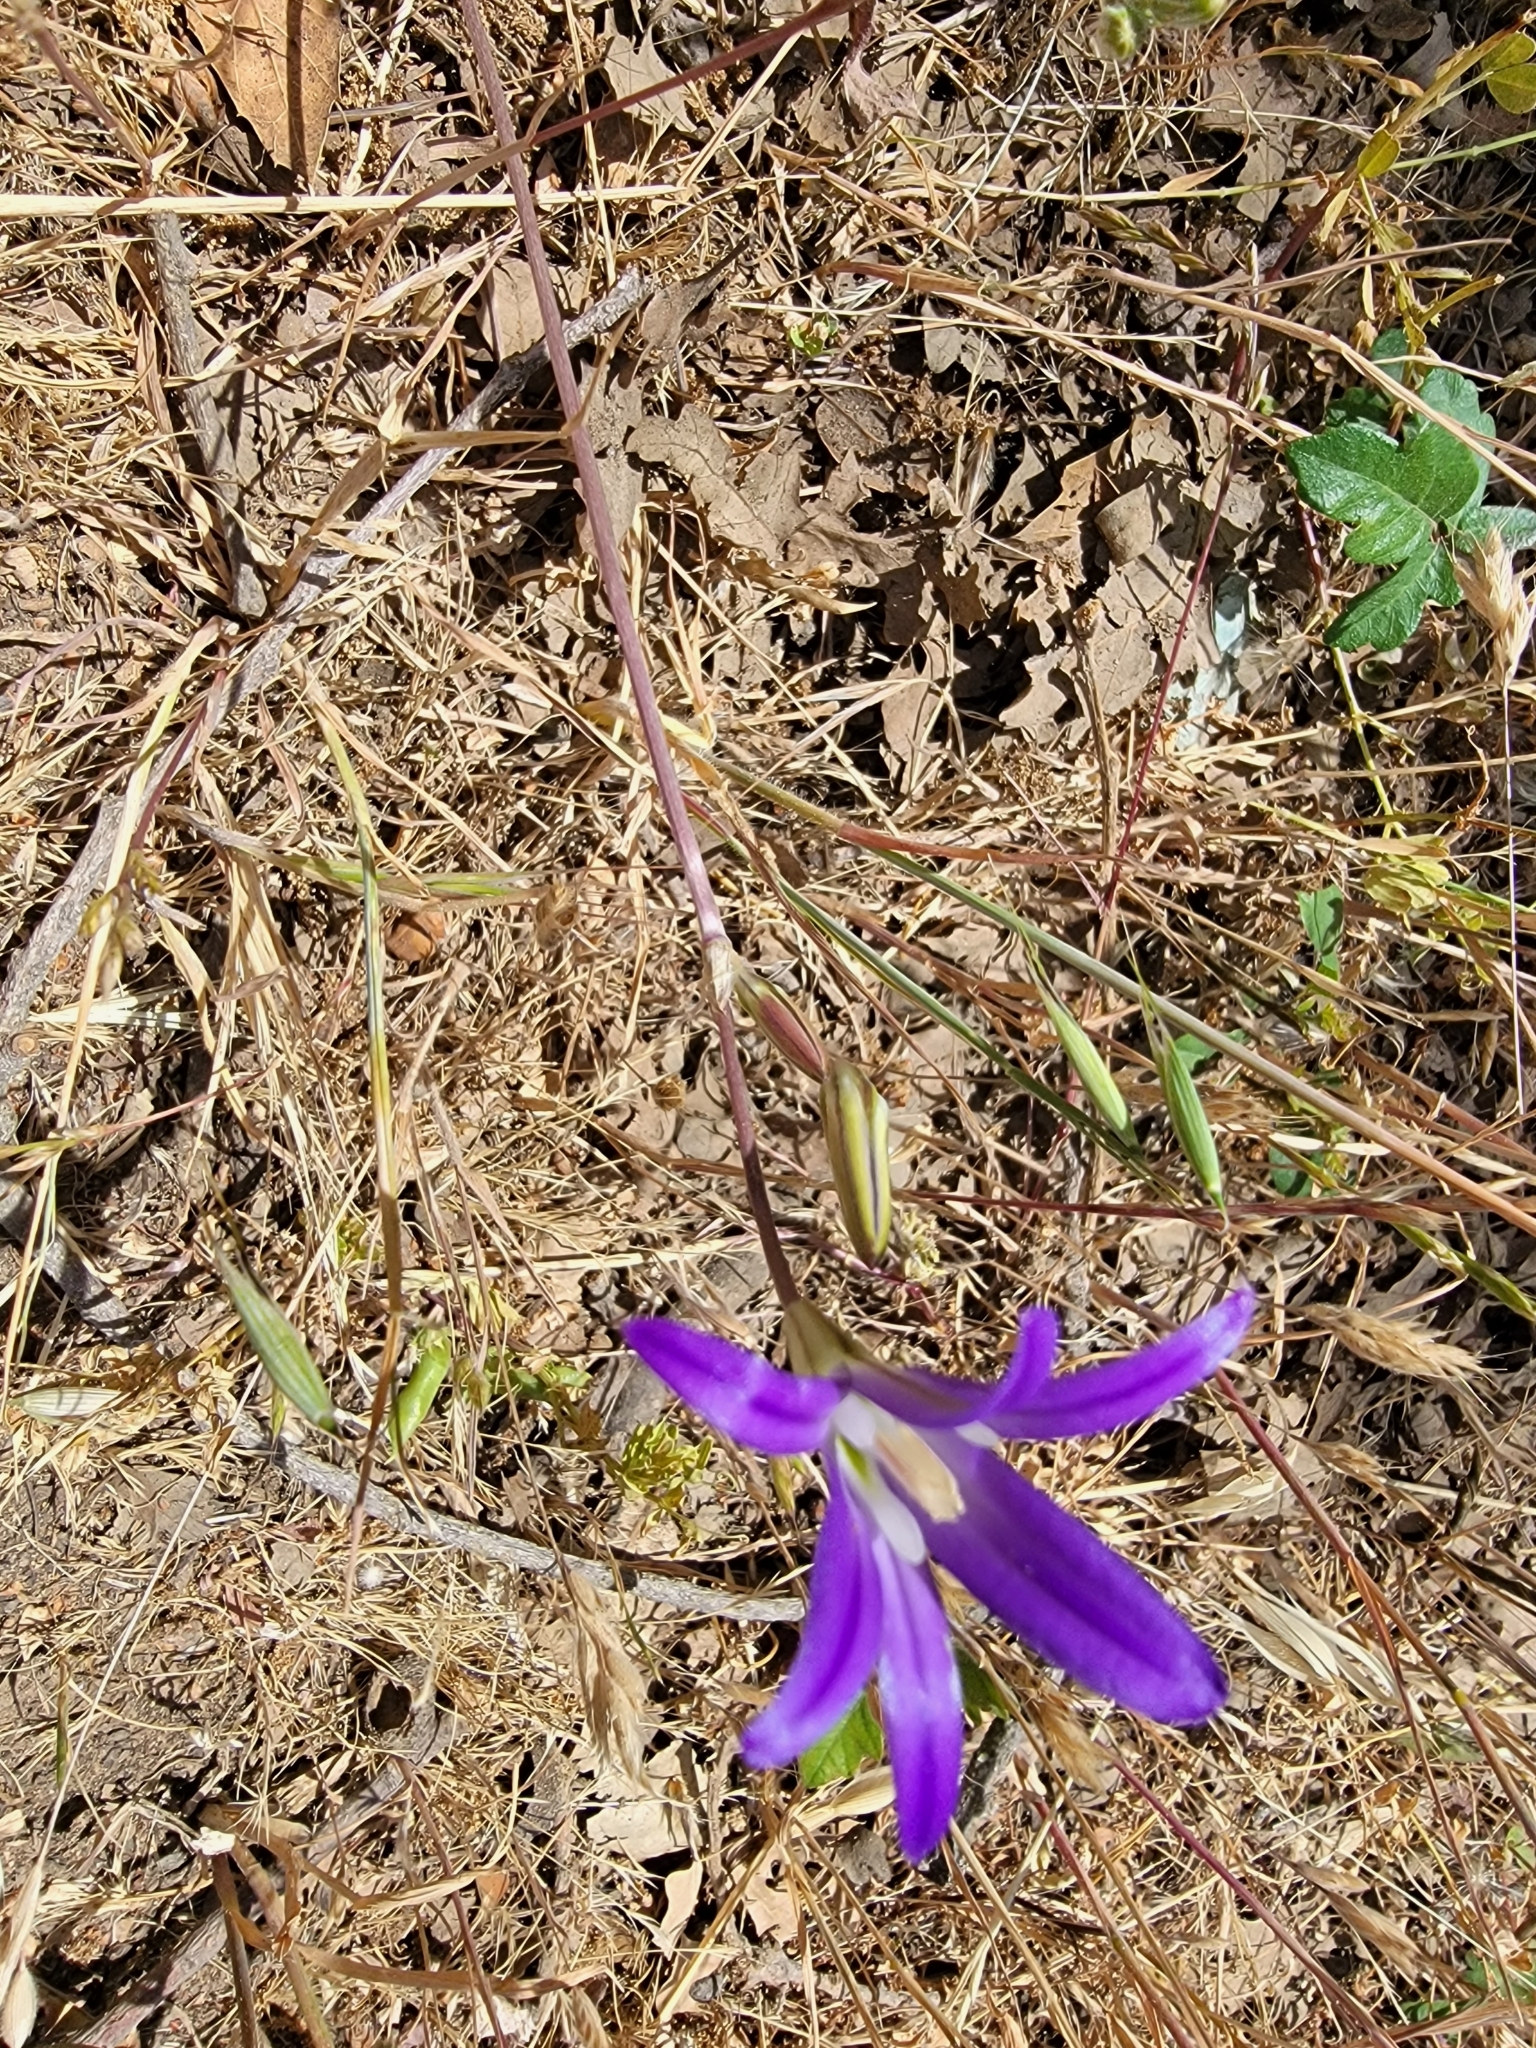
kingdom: Plantae
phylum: Tracheophyta
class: Liliopsida
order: Asparagales
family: Asparagaceae
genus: Brodiaea
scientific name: Brodiaea elegans
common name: Elegant cluster-lily
